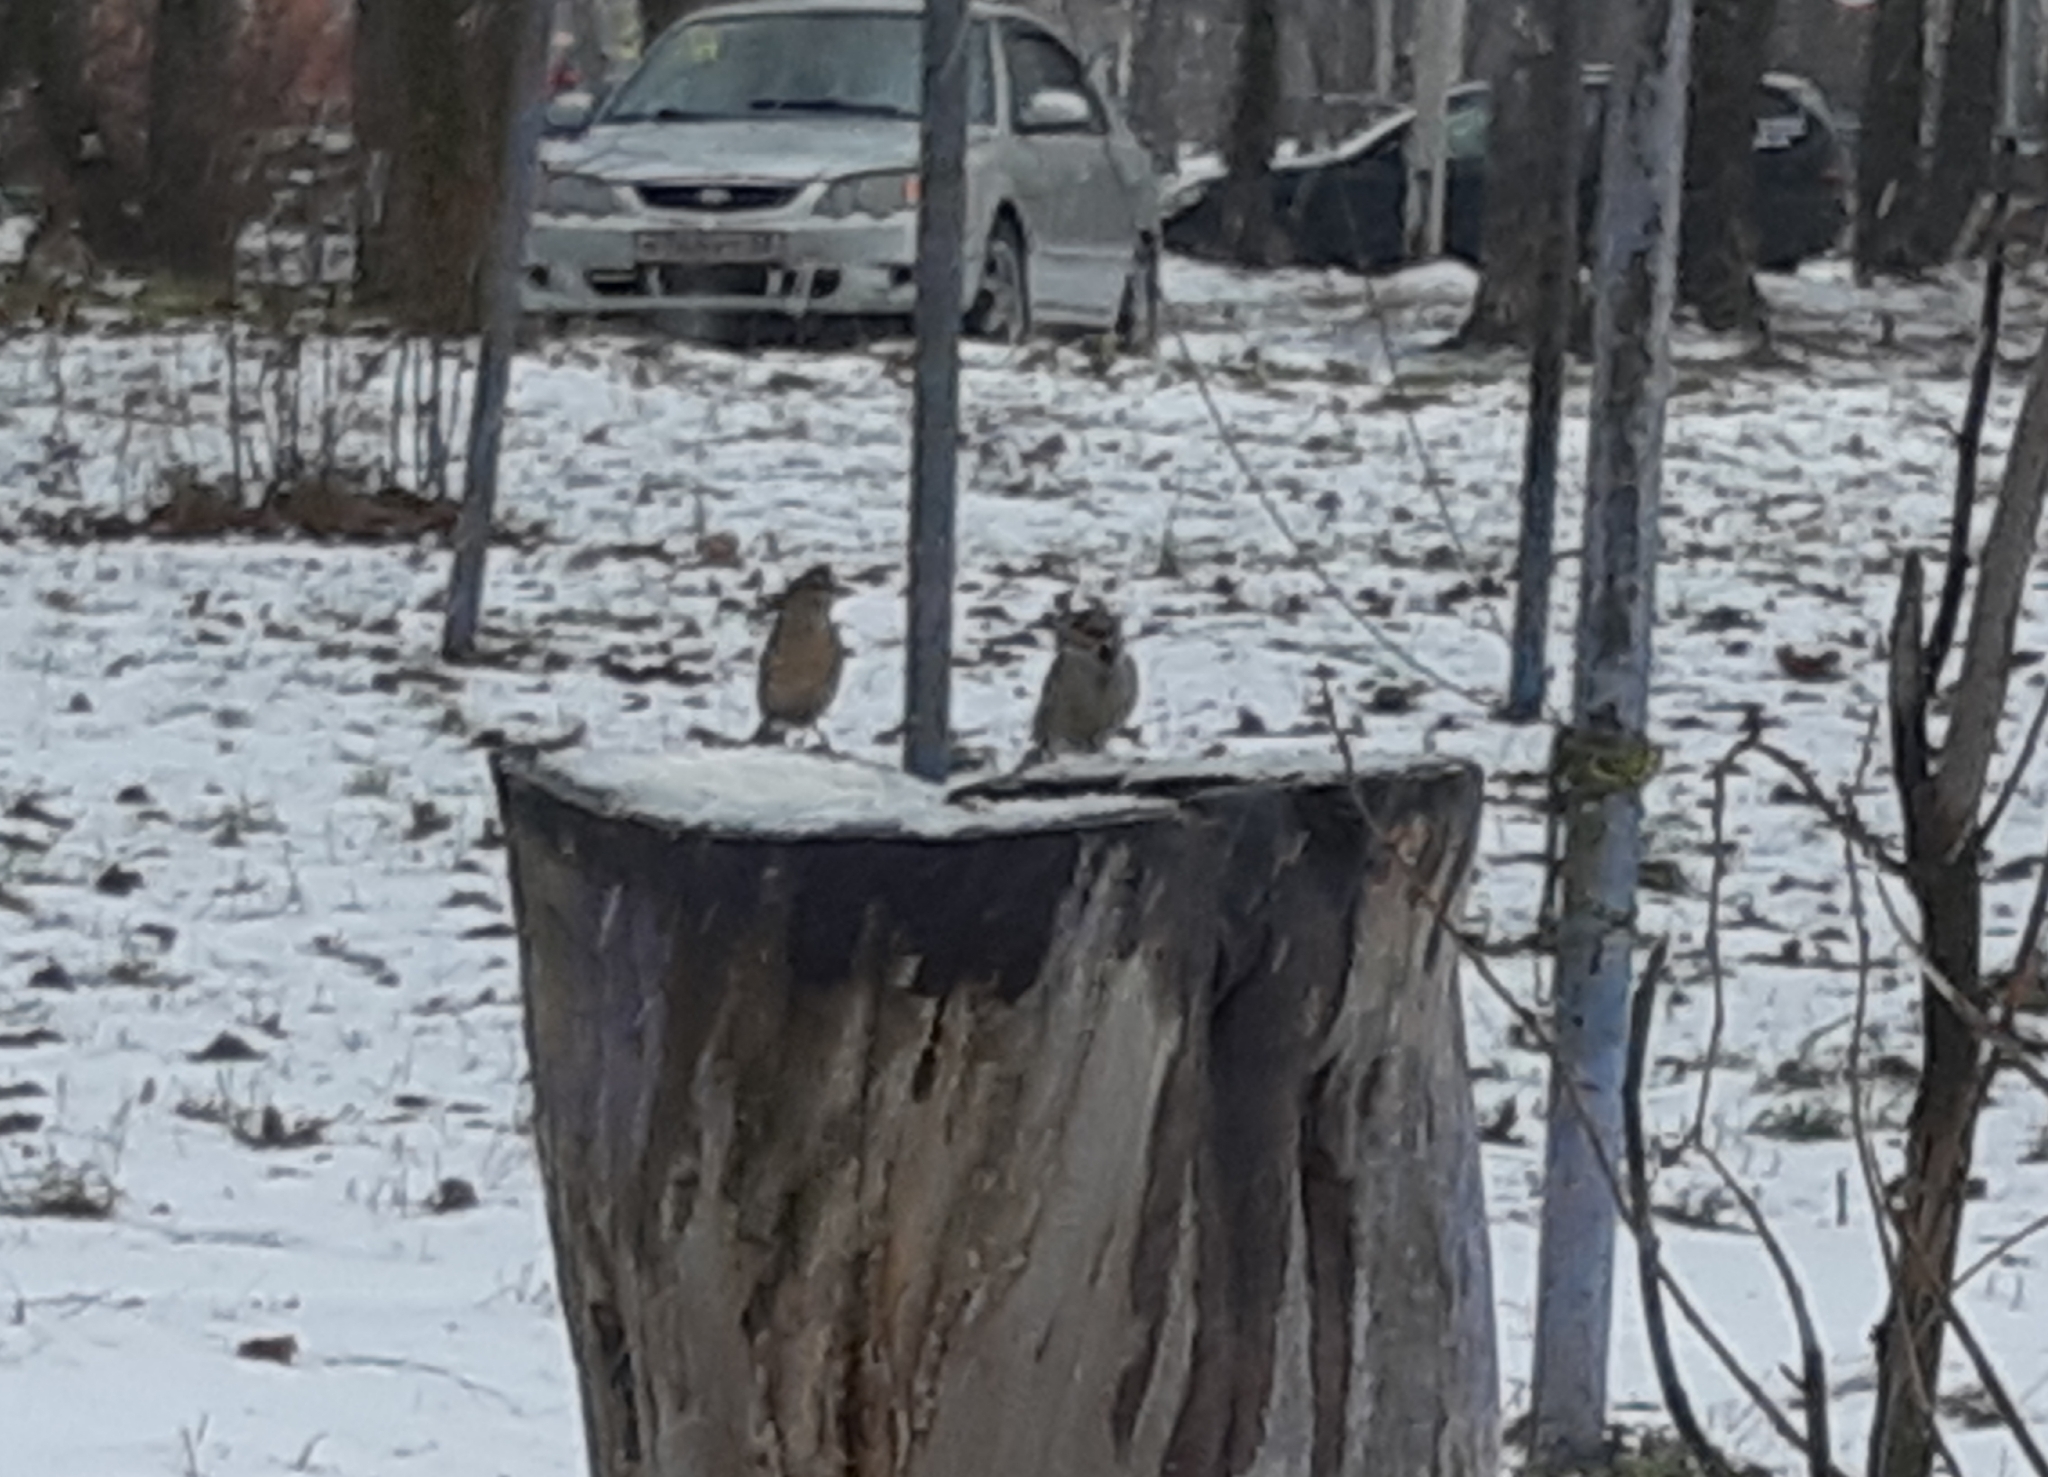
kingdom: Animalia
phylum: Chordata
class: Aves
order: Passeriformes
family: Passeridae
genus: Passer
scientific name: Passer domesticus
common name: House sparrow
